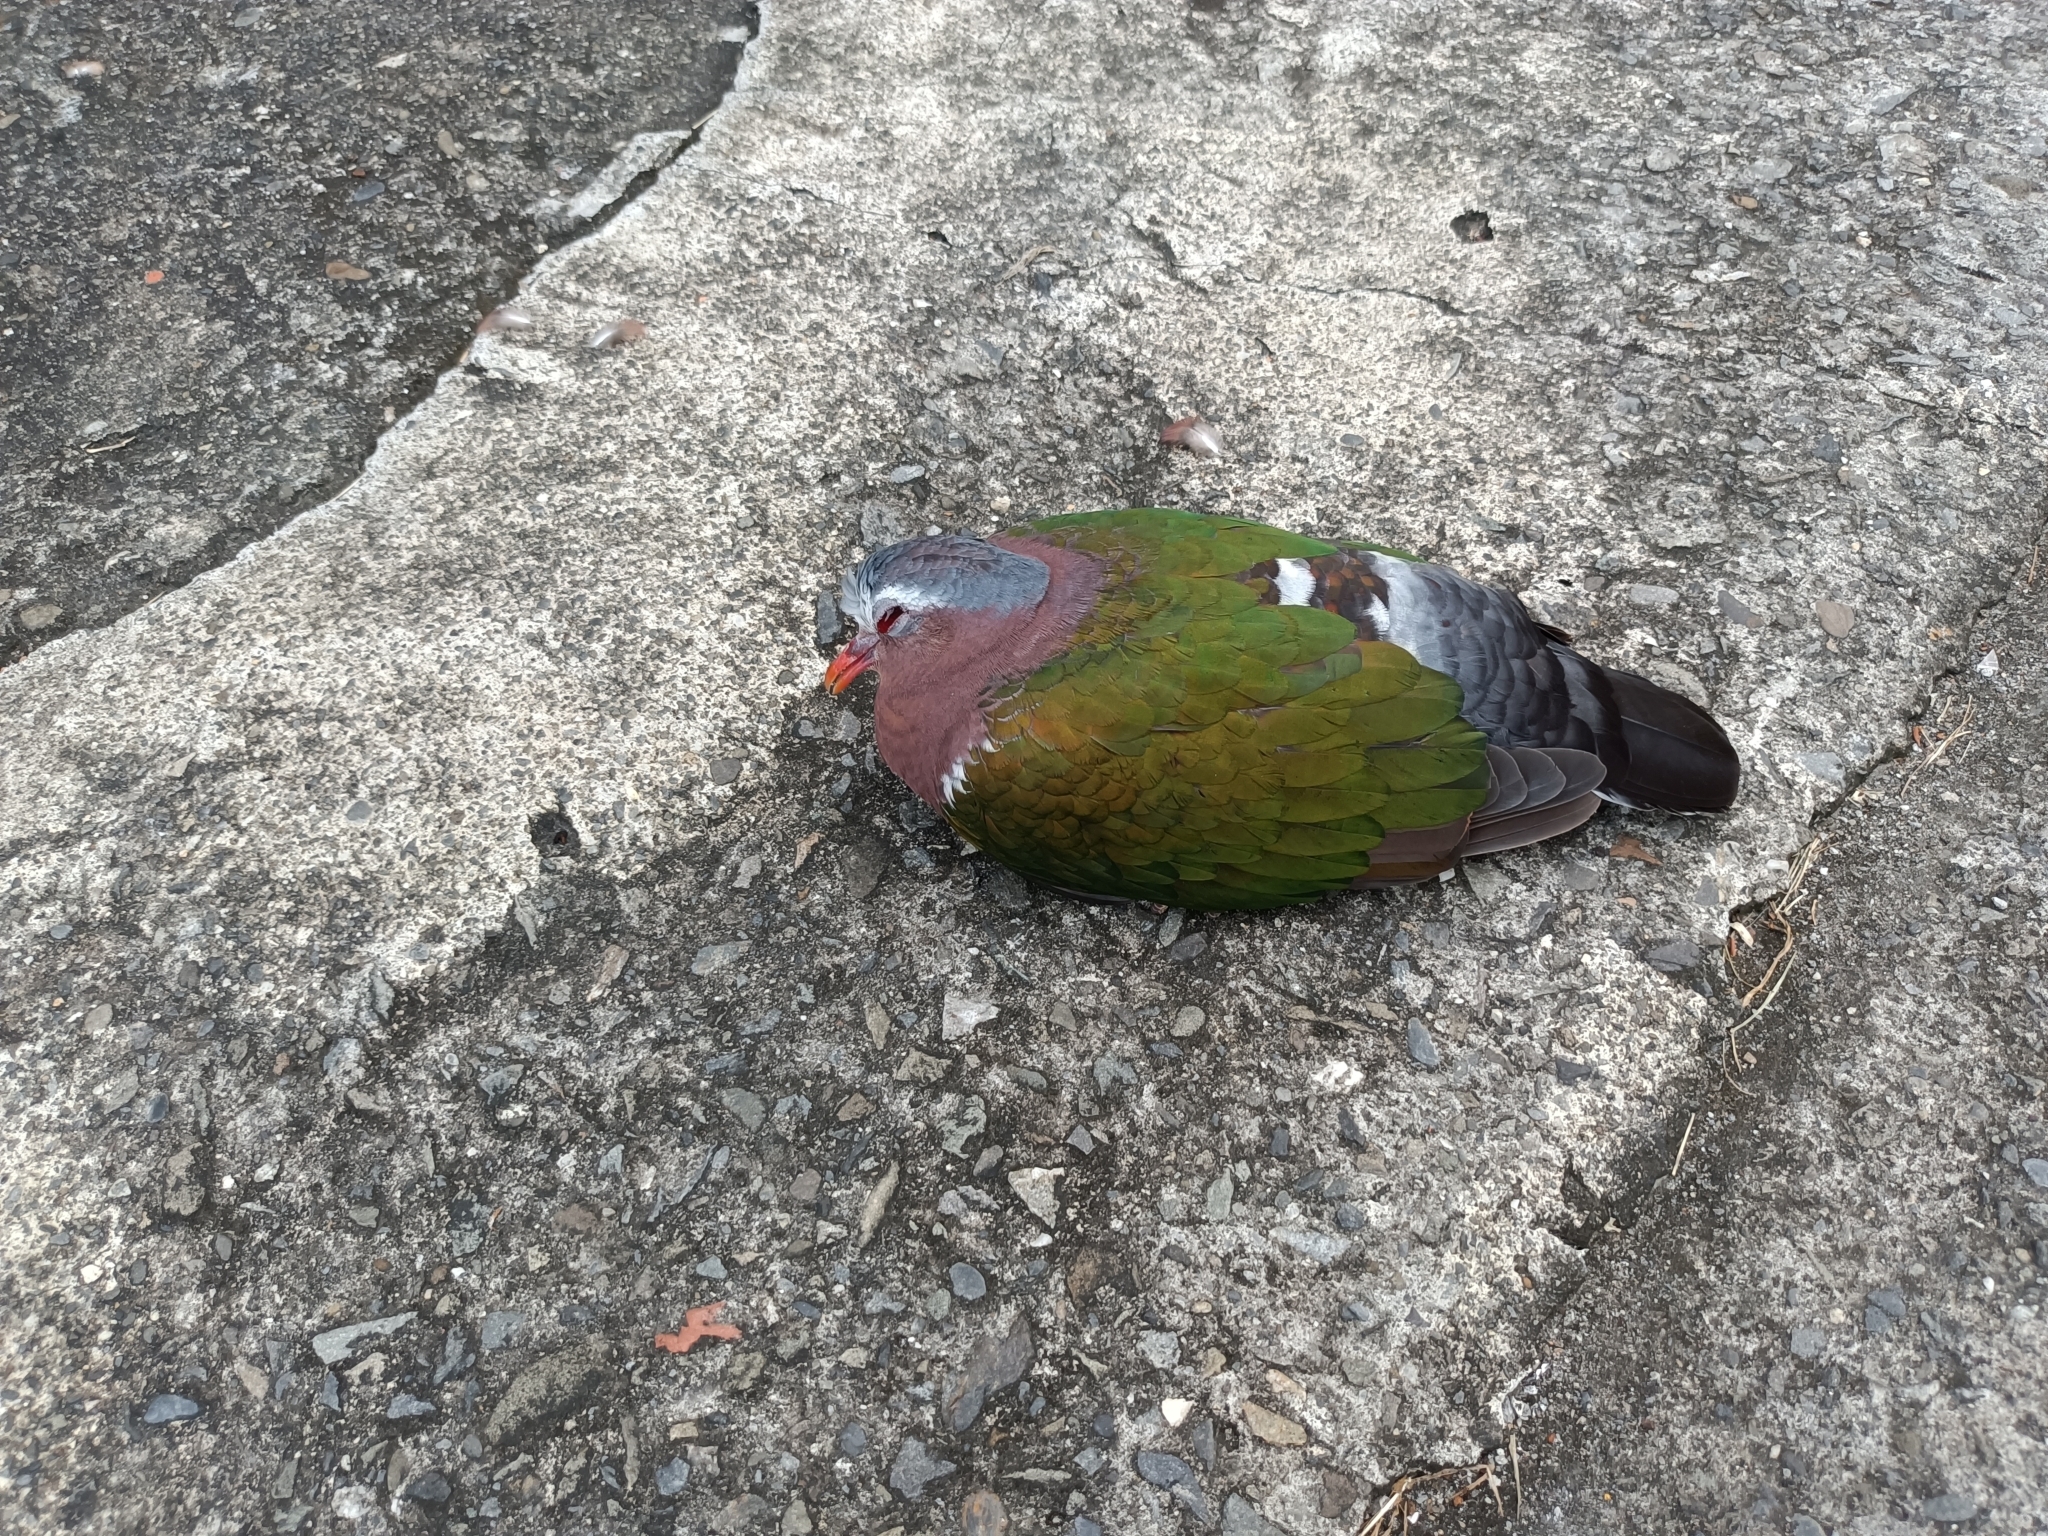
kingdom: Animalia
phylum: Chordata
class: Aves
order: Columbiformes
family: Columbidae
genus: Chalcophaps
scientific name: Chalcophaps indica
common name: Common emerald dove
